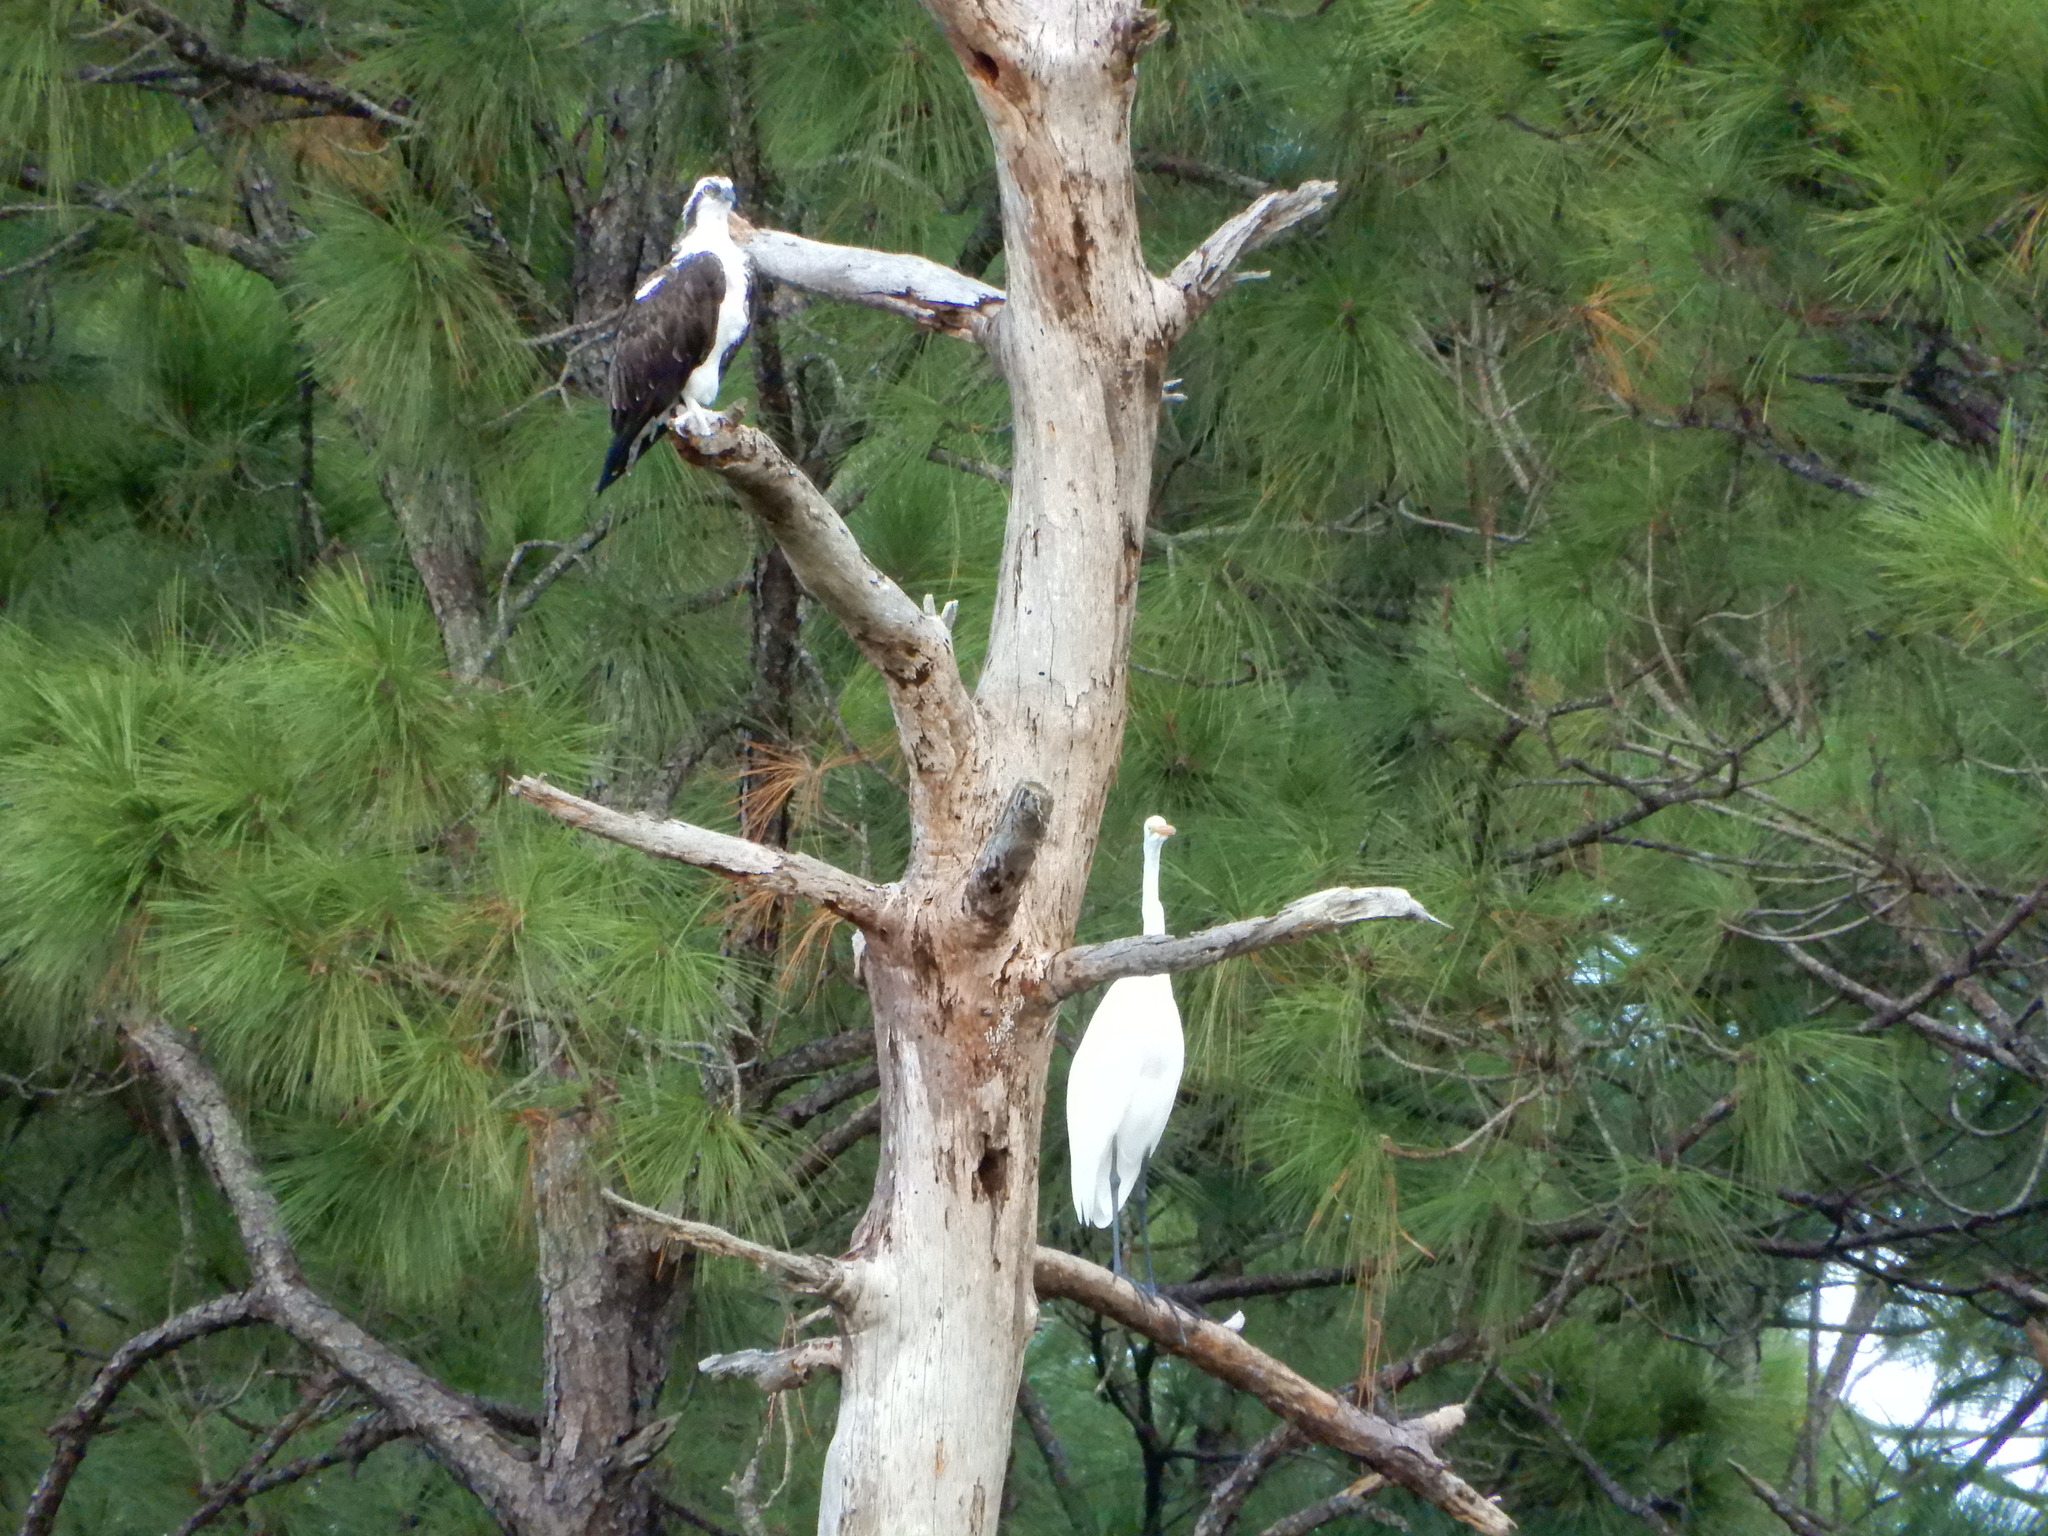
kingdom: Animalia
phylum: Chordata
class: Aves
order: Pelecaniformes
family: Ardeidae
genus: Ardea
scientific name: Ardea alba
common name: Great egret
